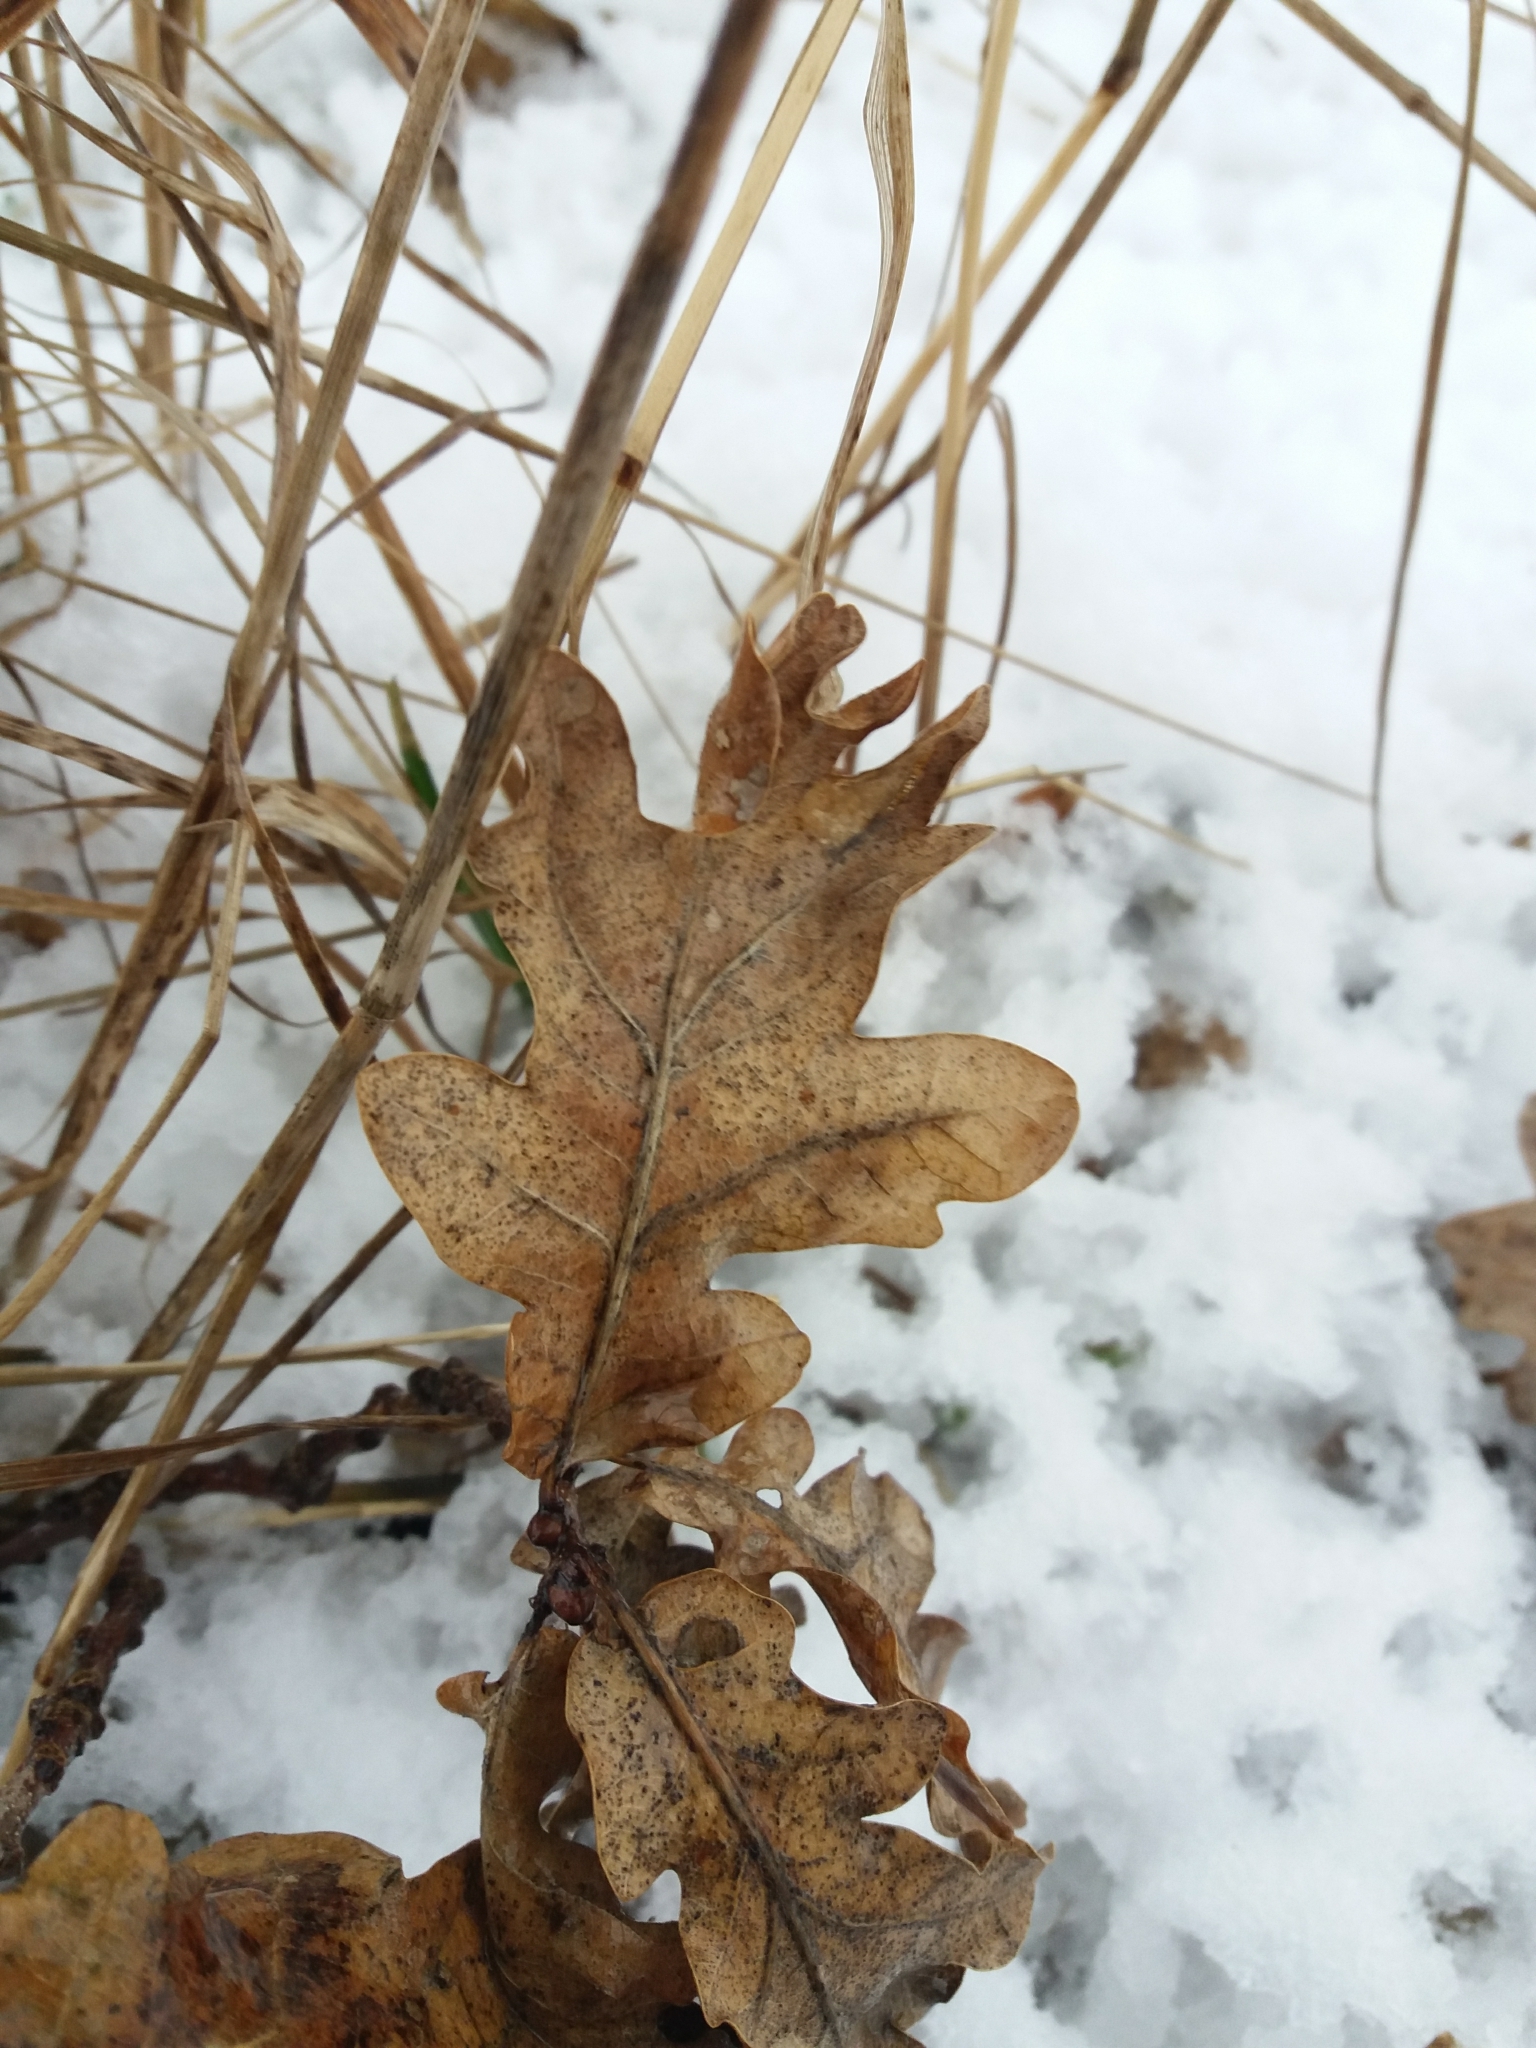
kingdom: Plantae
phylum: Tracheophyta
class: Magnoliopsida
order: Fagales
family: Fagaceae
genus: Quercus
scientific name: Quercus robur
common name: Pedunculate oak
